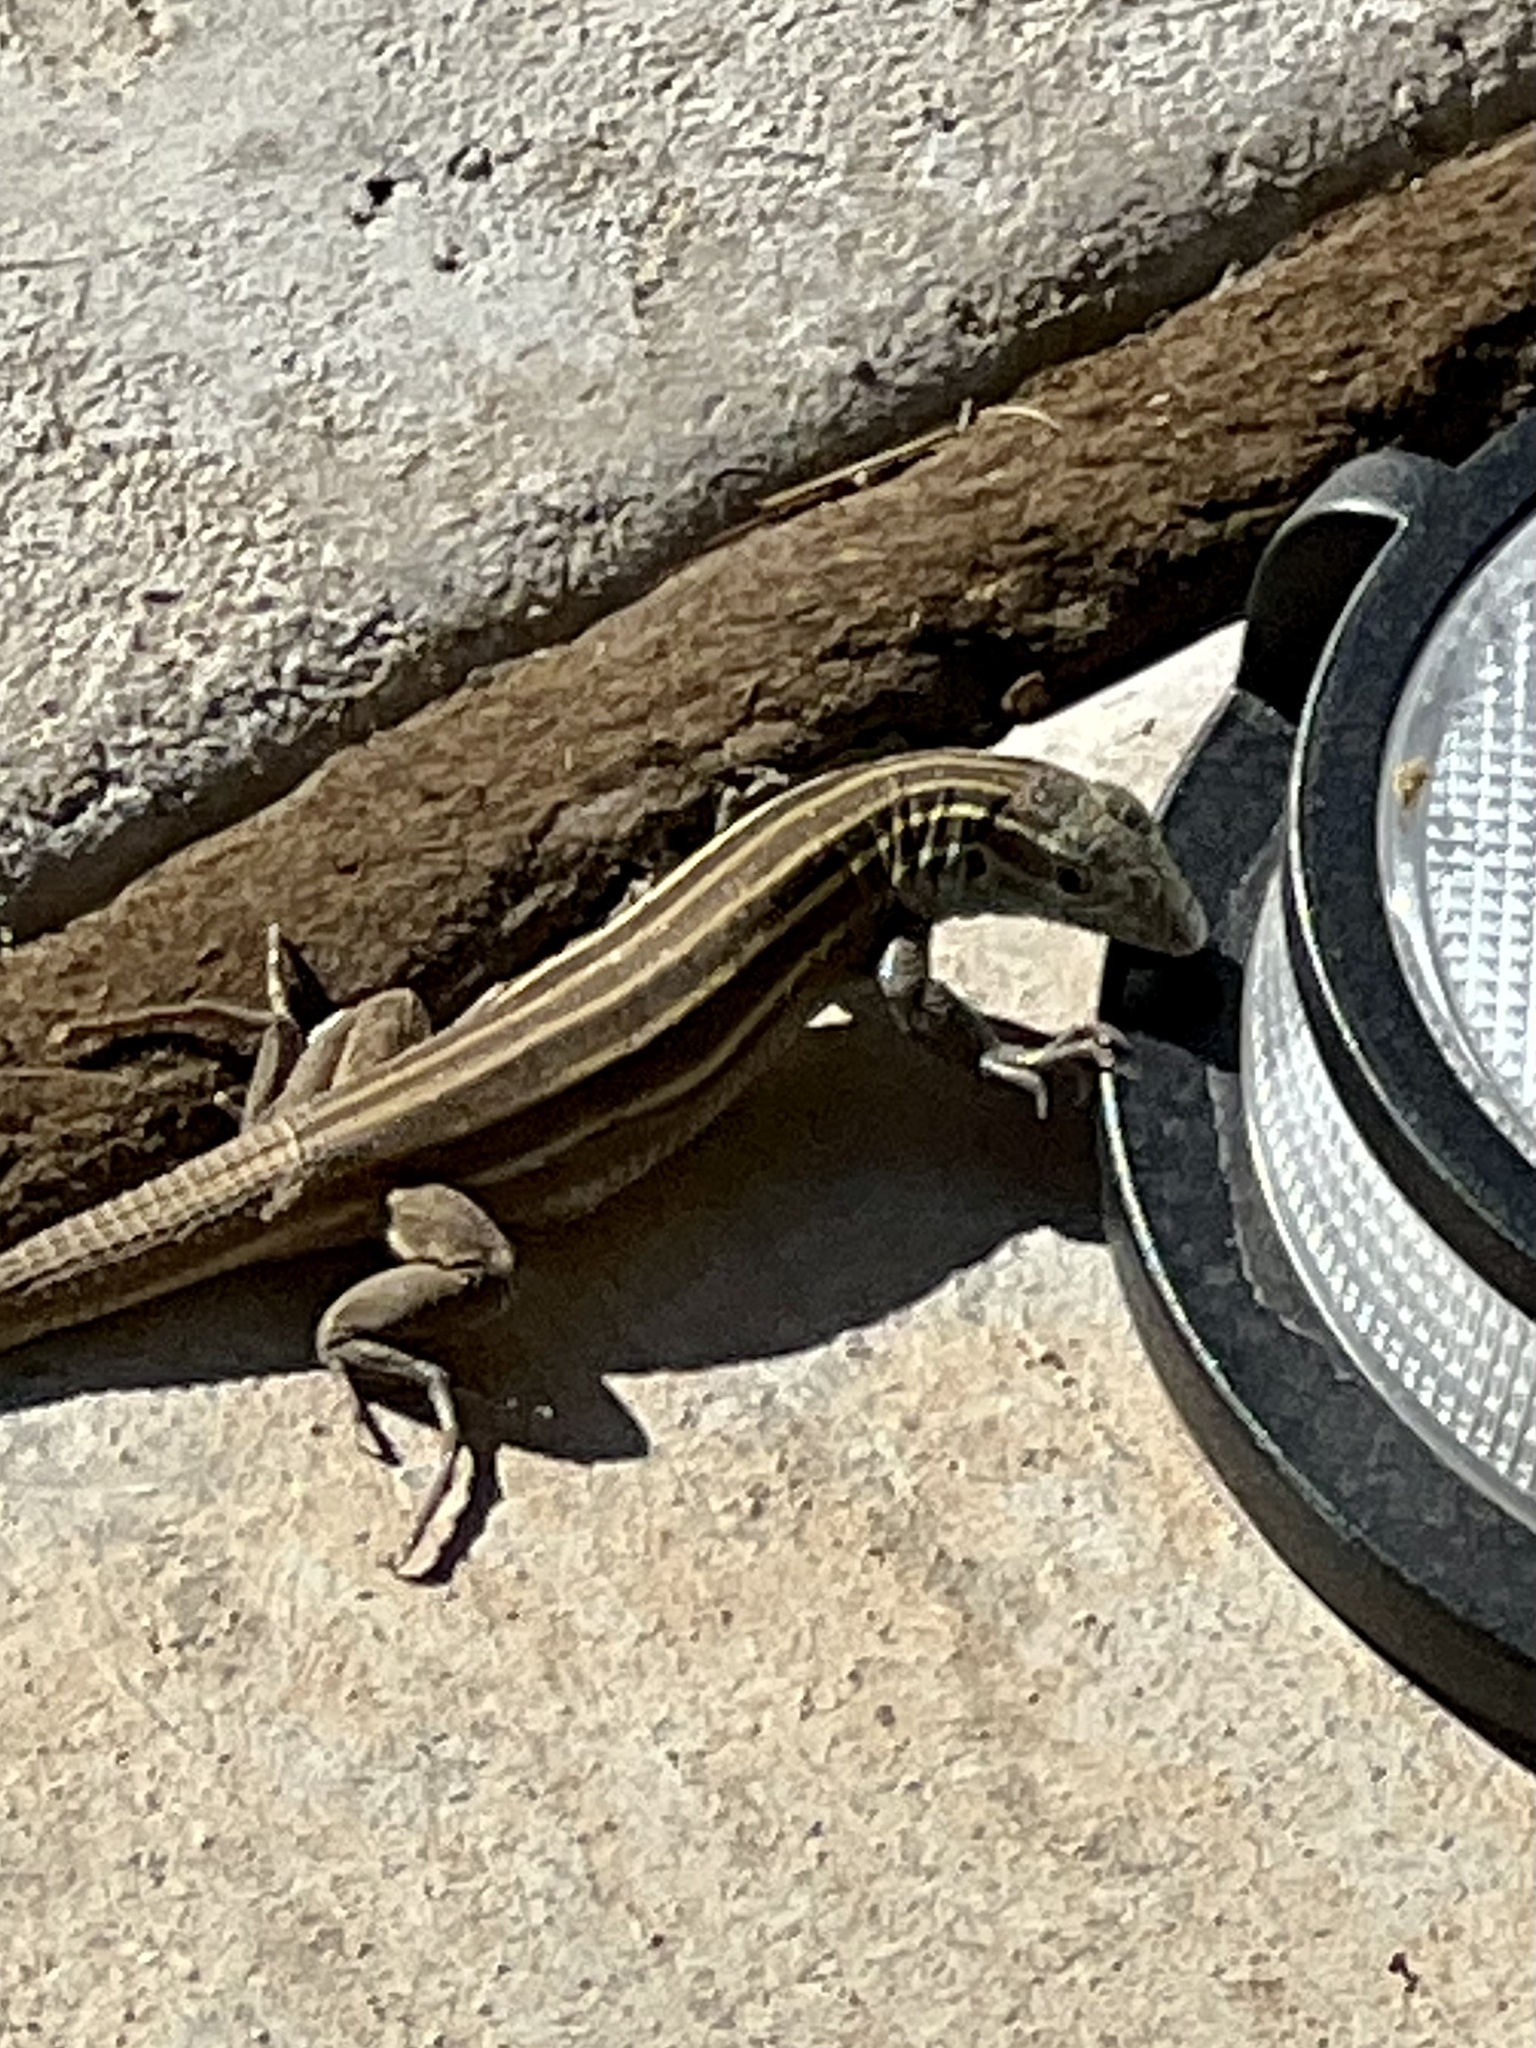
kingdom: Animalia
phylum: Chordata
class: Squamata
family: Teiidae
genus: Aspidoscelis
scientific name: Aspidoscelis uniparens
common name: Desert grassland whiptail
